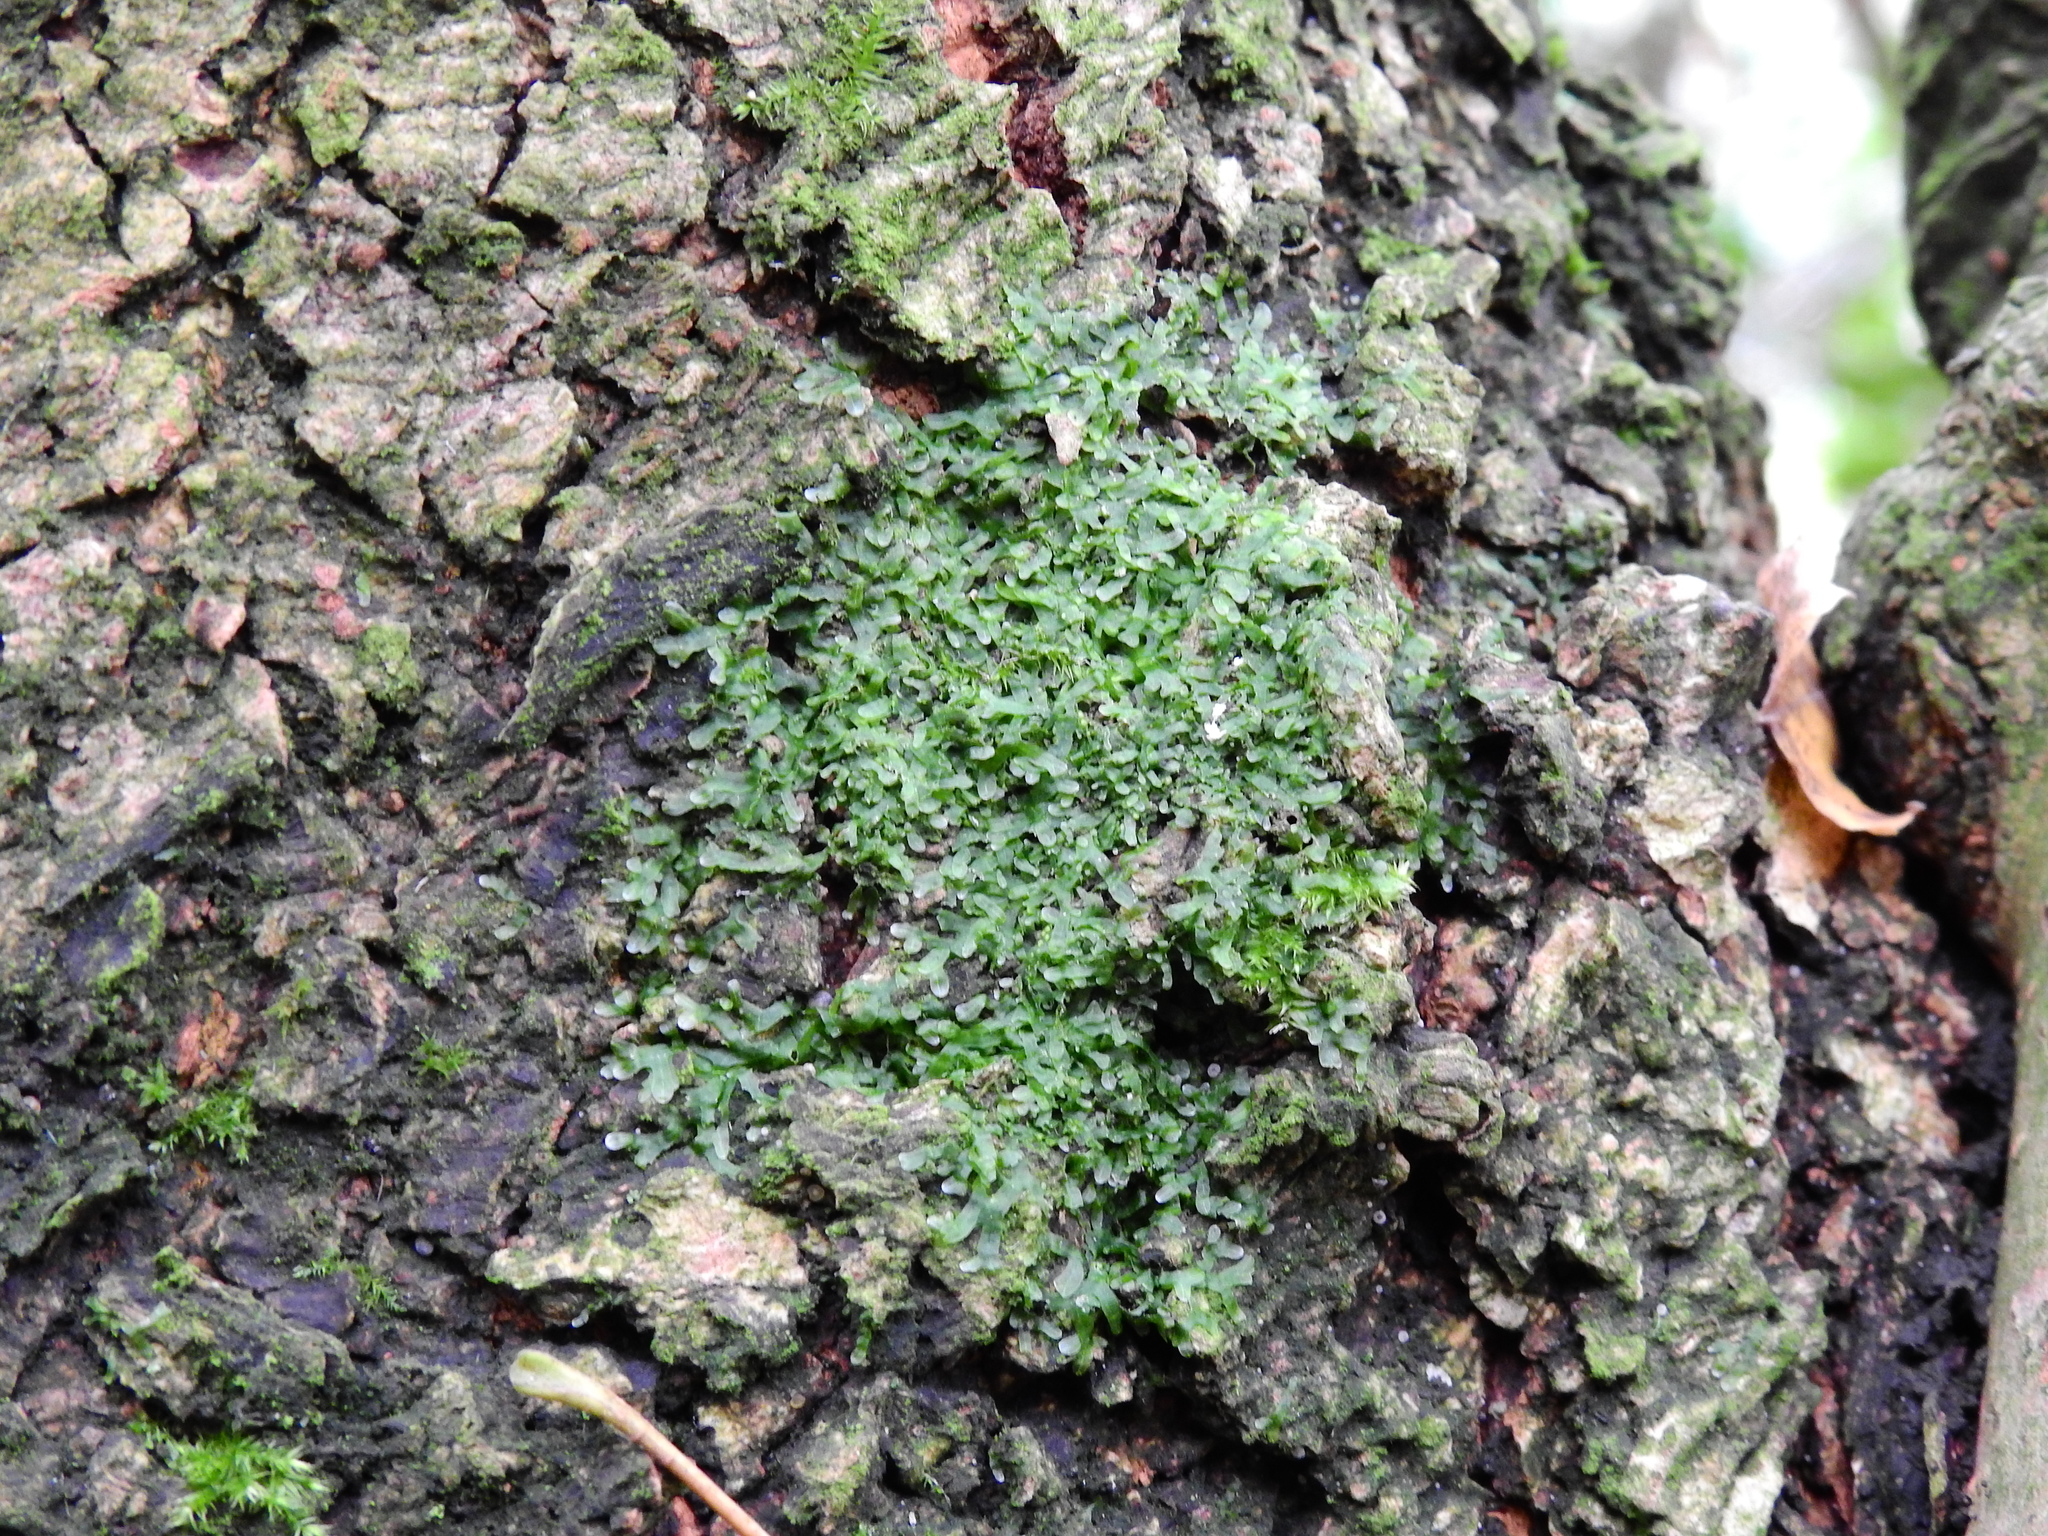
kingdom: Plantae
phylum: Marchantiophyta
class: Jungermanniopsida
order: Metzgeriales
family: Metzgeriaceae
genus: Metzgeria
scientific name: Metzgeria furcata
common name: Forked veilwort
